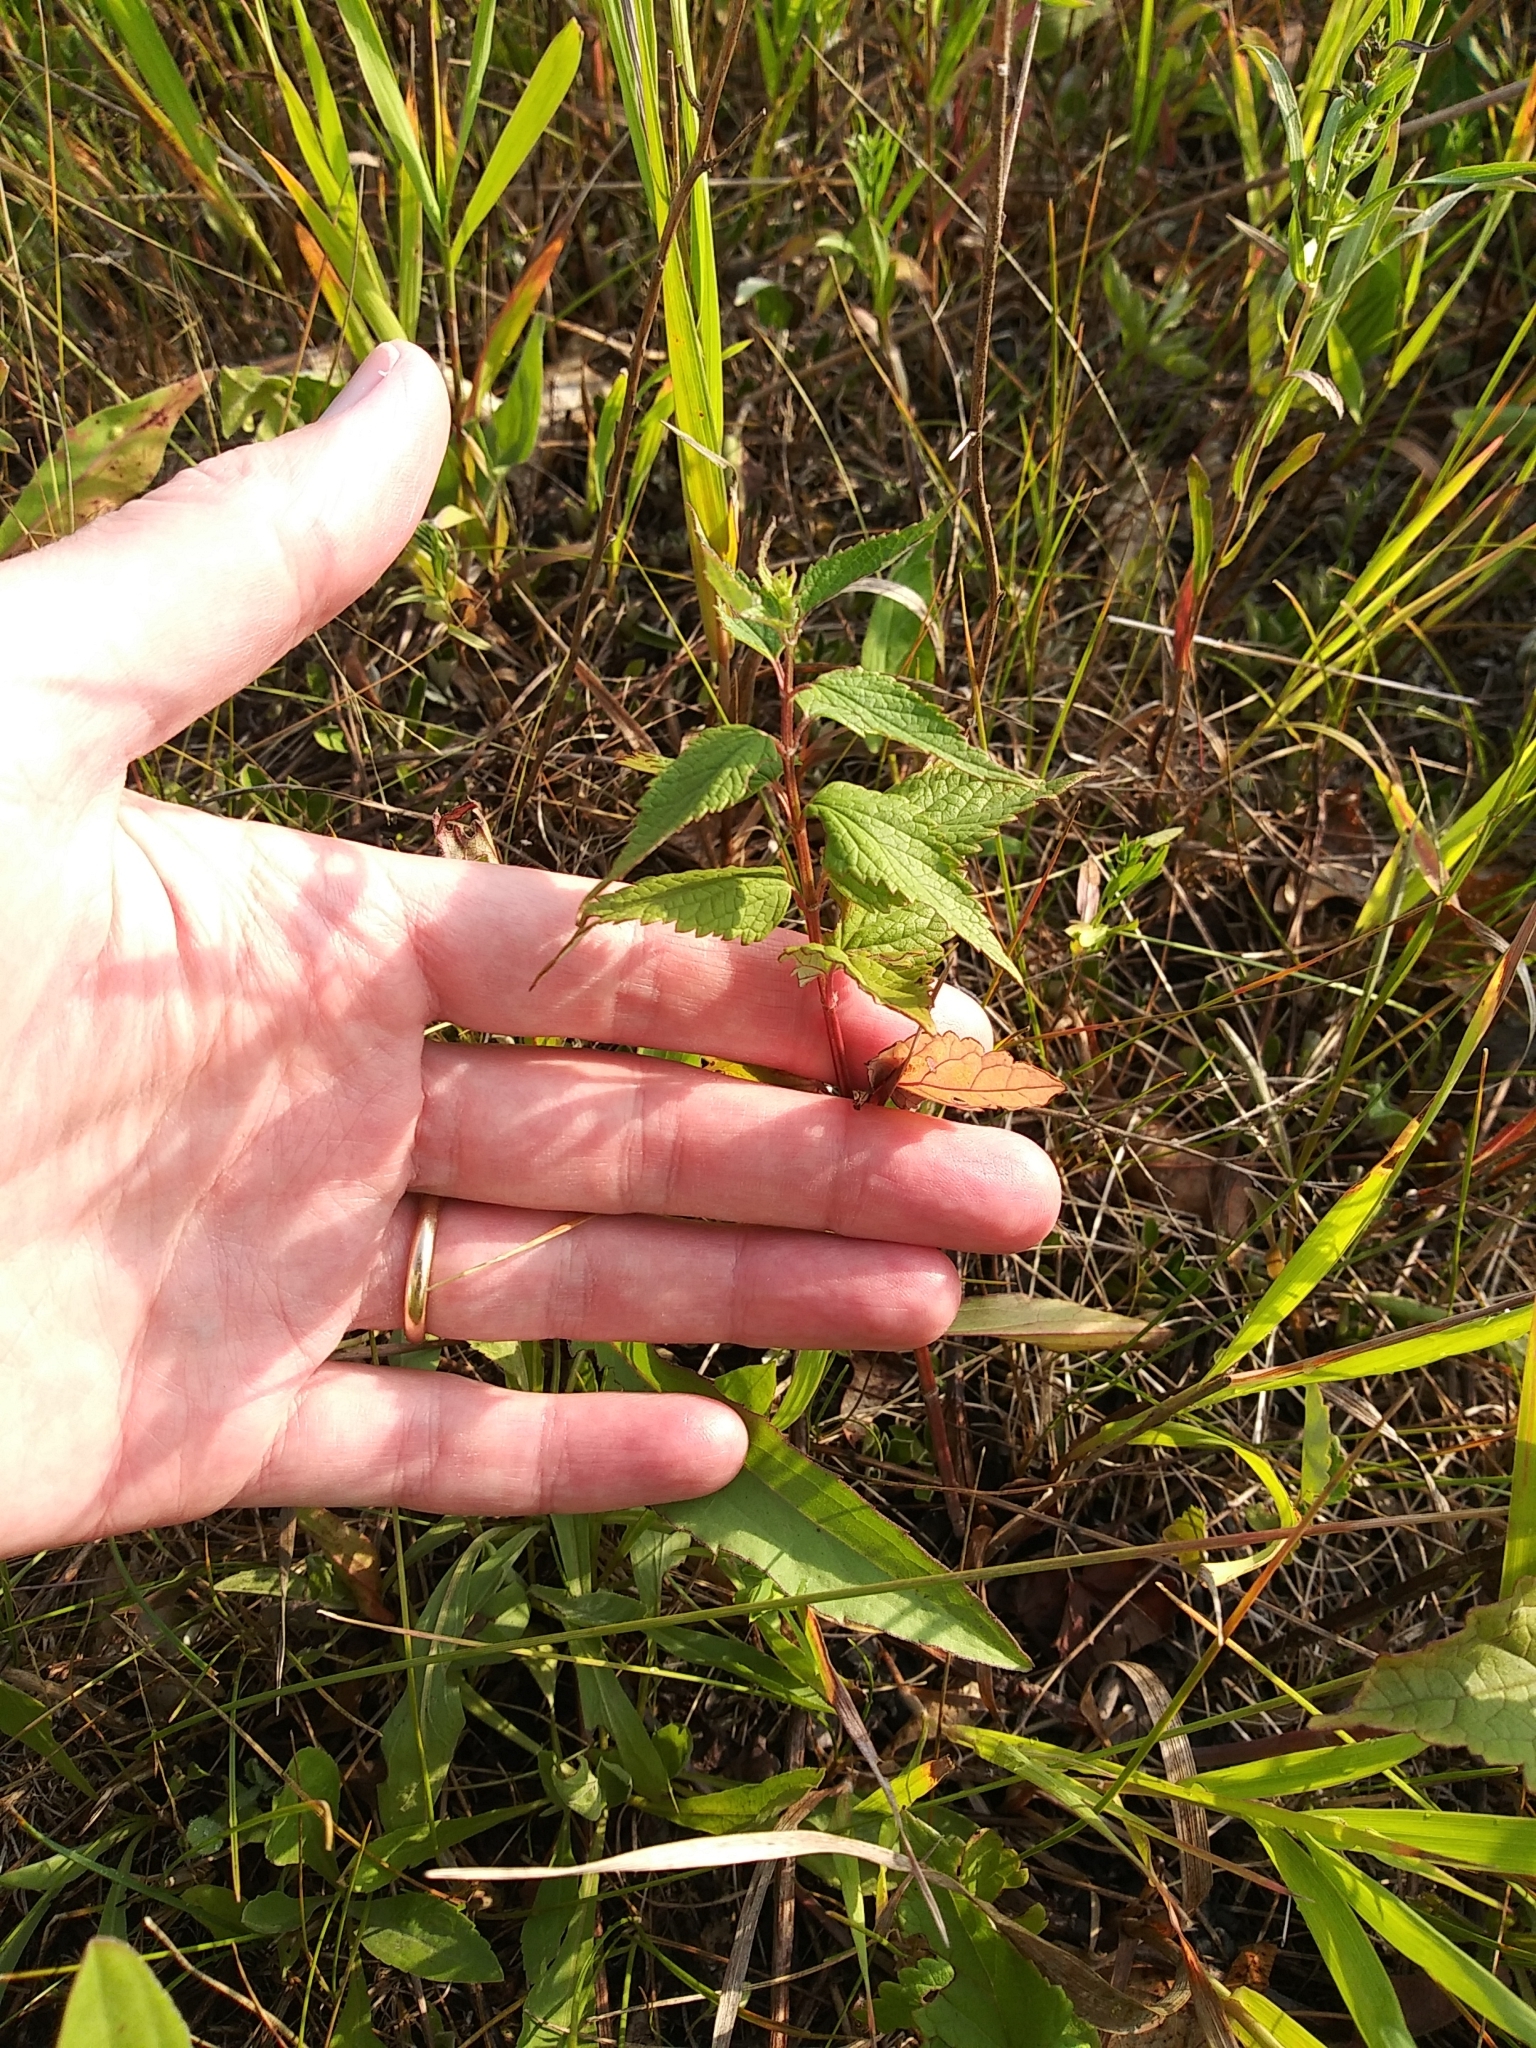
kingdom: Plantae
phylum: Tracheophyta
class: Magnoliopsida
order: Lamiales
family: Lamiaceae
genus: Scutellaria
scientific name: Scutellaria lateriflora
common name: Blue skullcap
